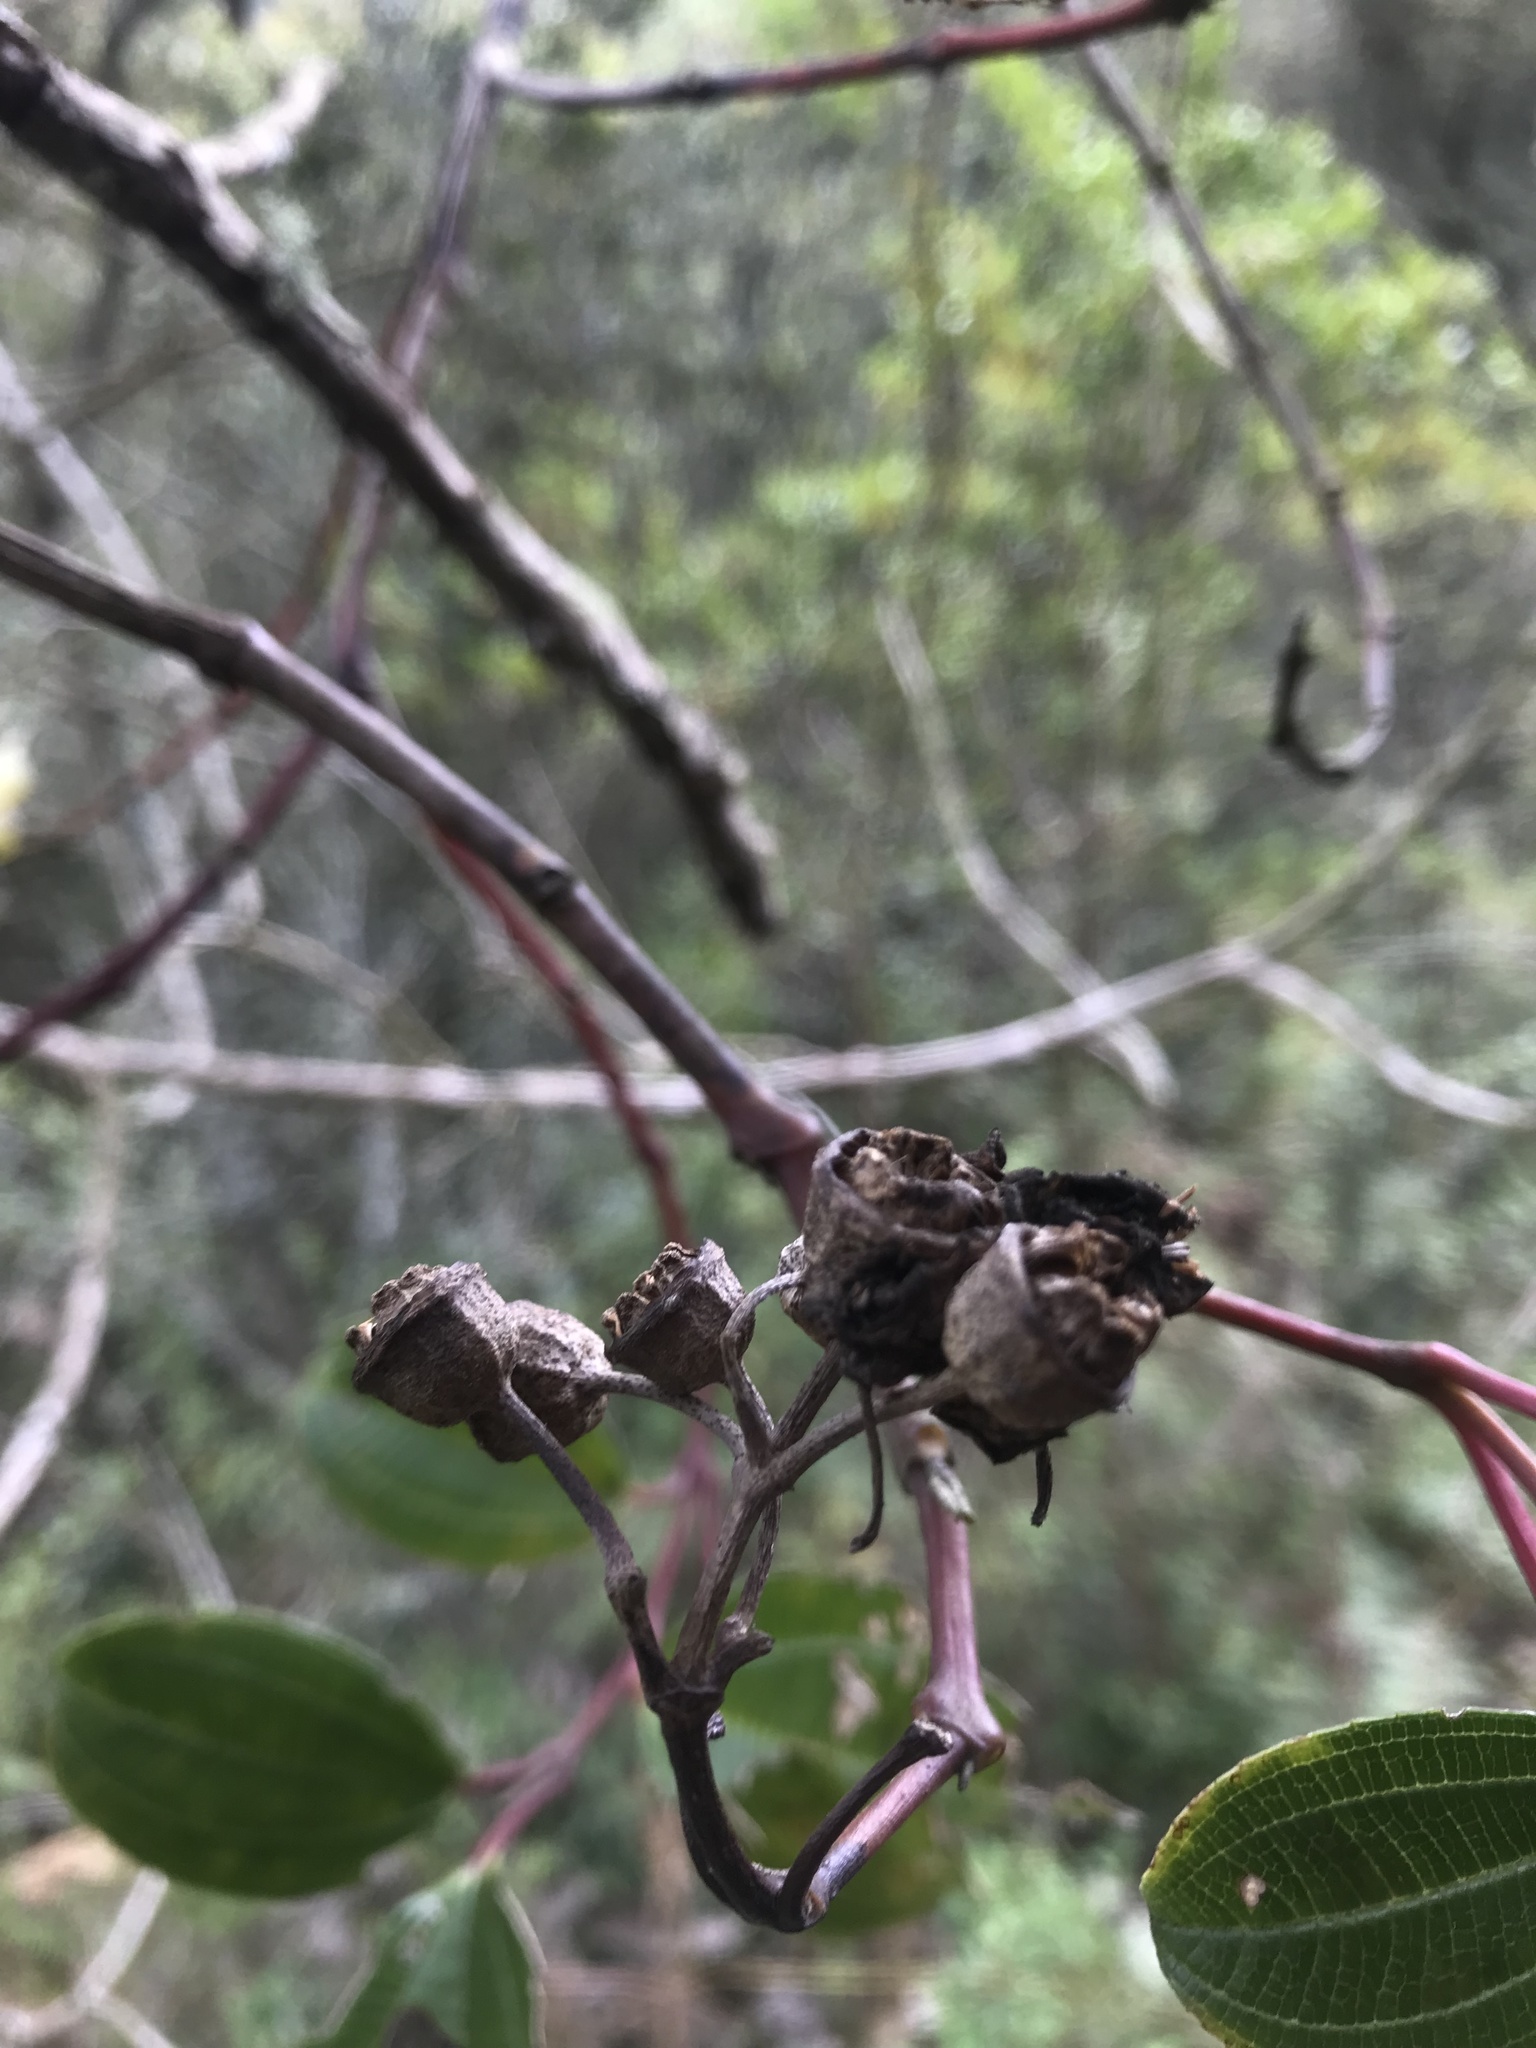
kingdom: Plantae
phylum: Tracheophyta
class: Magnoliopsida
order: Myrtales
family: Melastomataceae
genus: Axinaea
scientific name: Axinaea macrophylla
